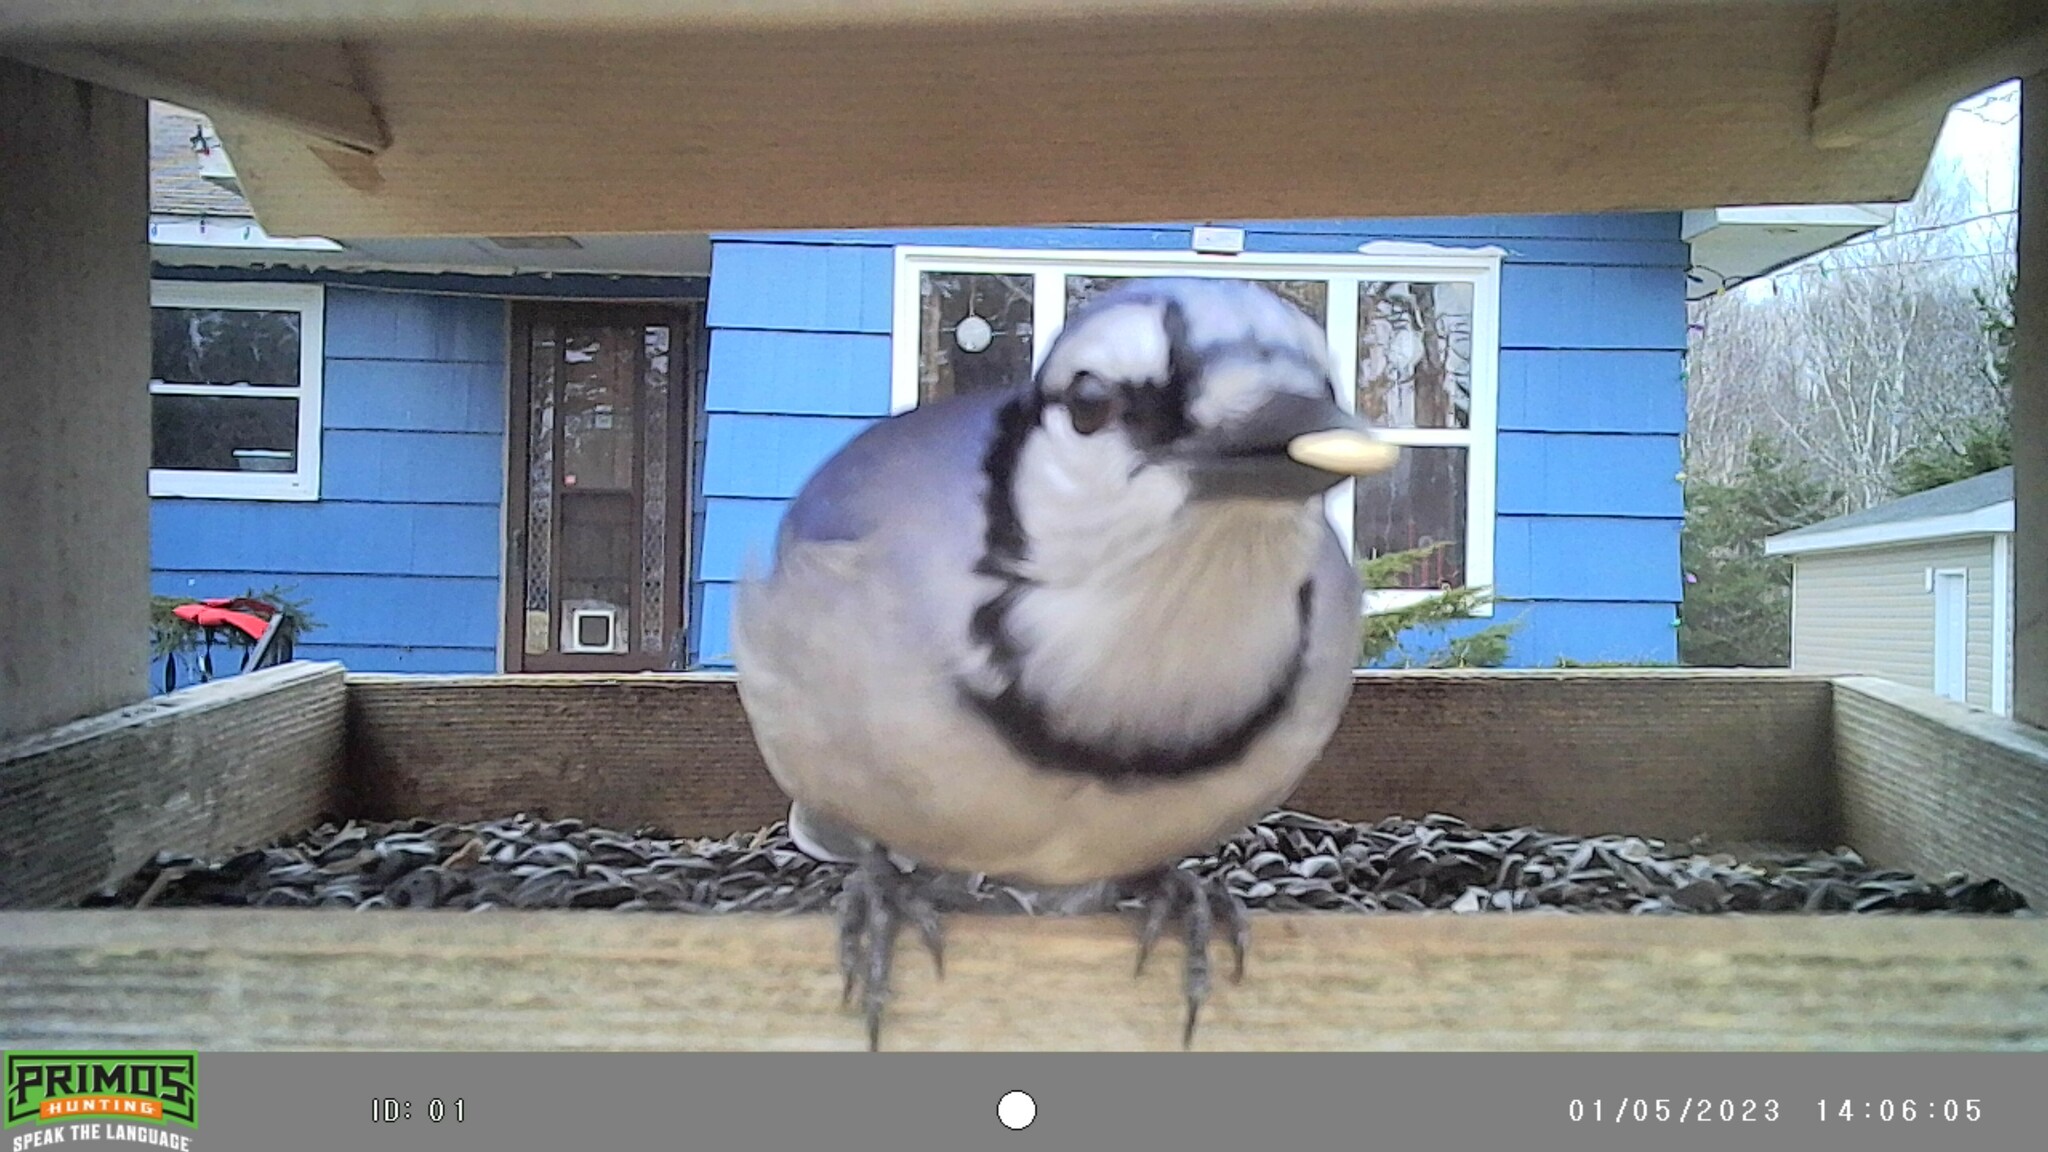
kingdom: Animalia
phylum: Chordata
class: Aves
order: Passeriformes
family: Corvidae
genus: Cyanocitta
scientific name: Cyanocitta cristata
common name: Blue jay
